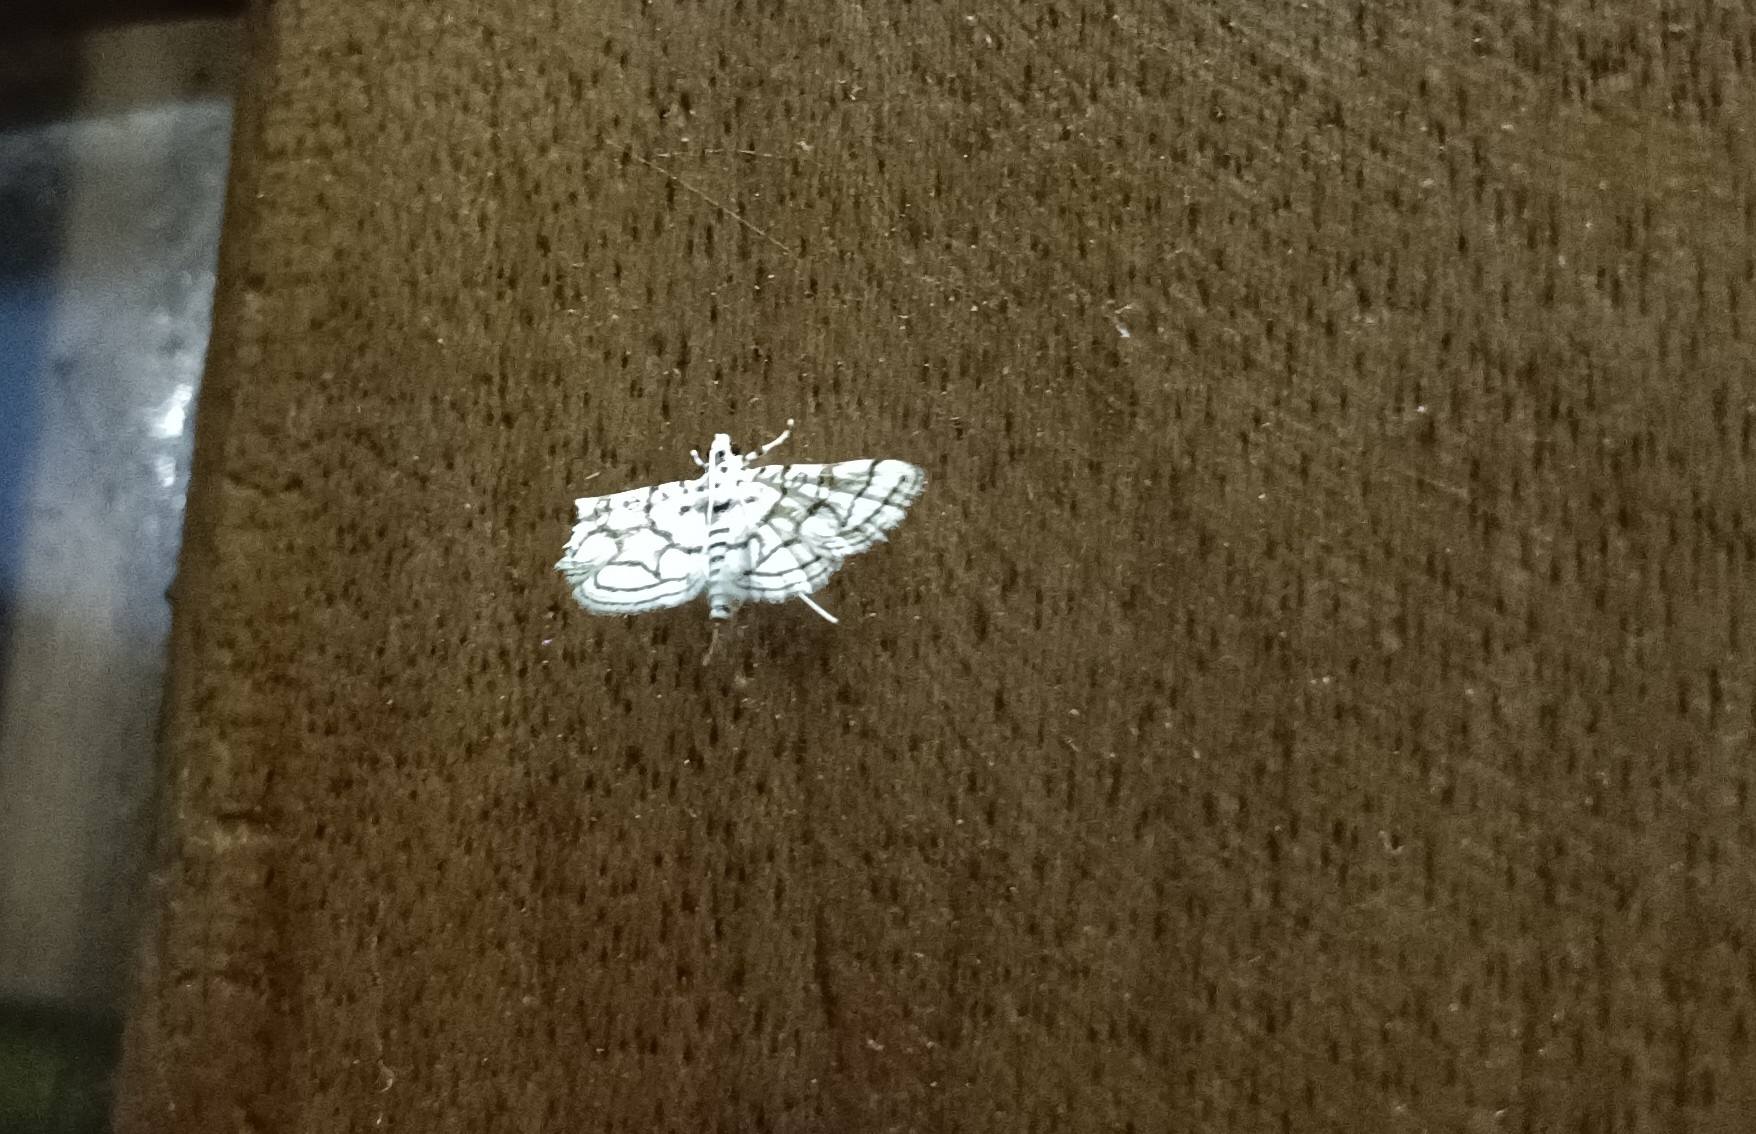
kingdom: Animalia
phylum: Arthropoda
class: Insecta
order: Lepidoptera
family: Crambidae
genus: Elophila
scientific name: Elophila
